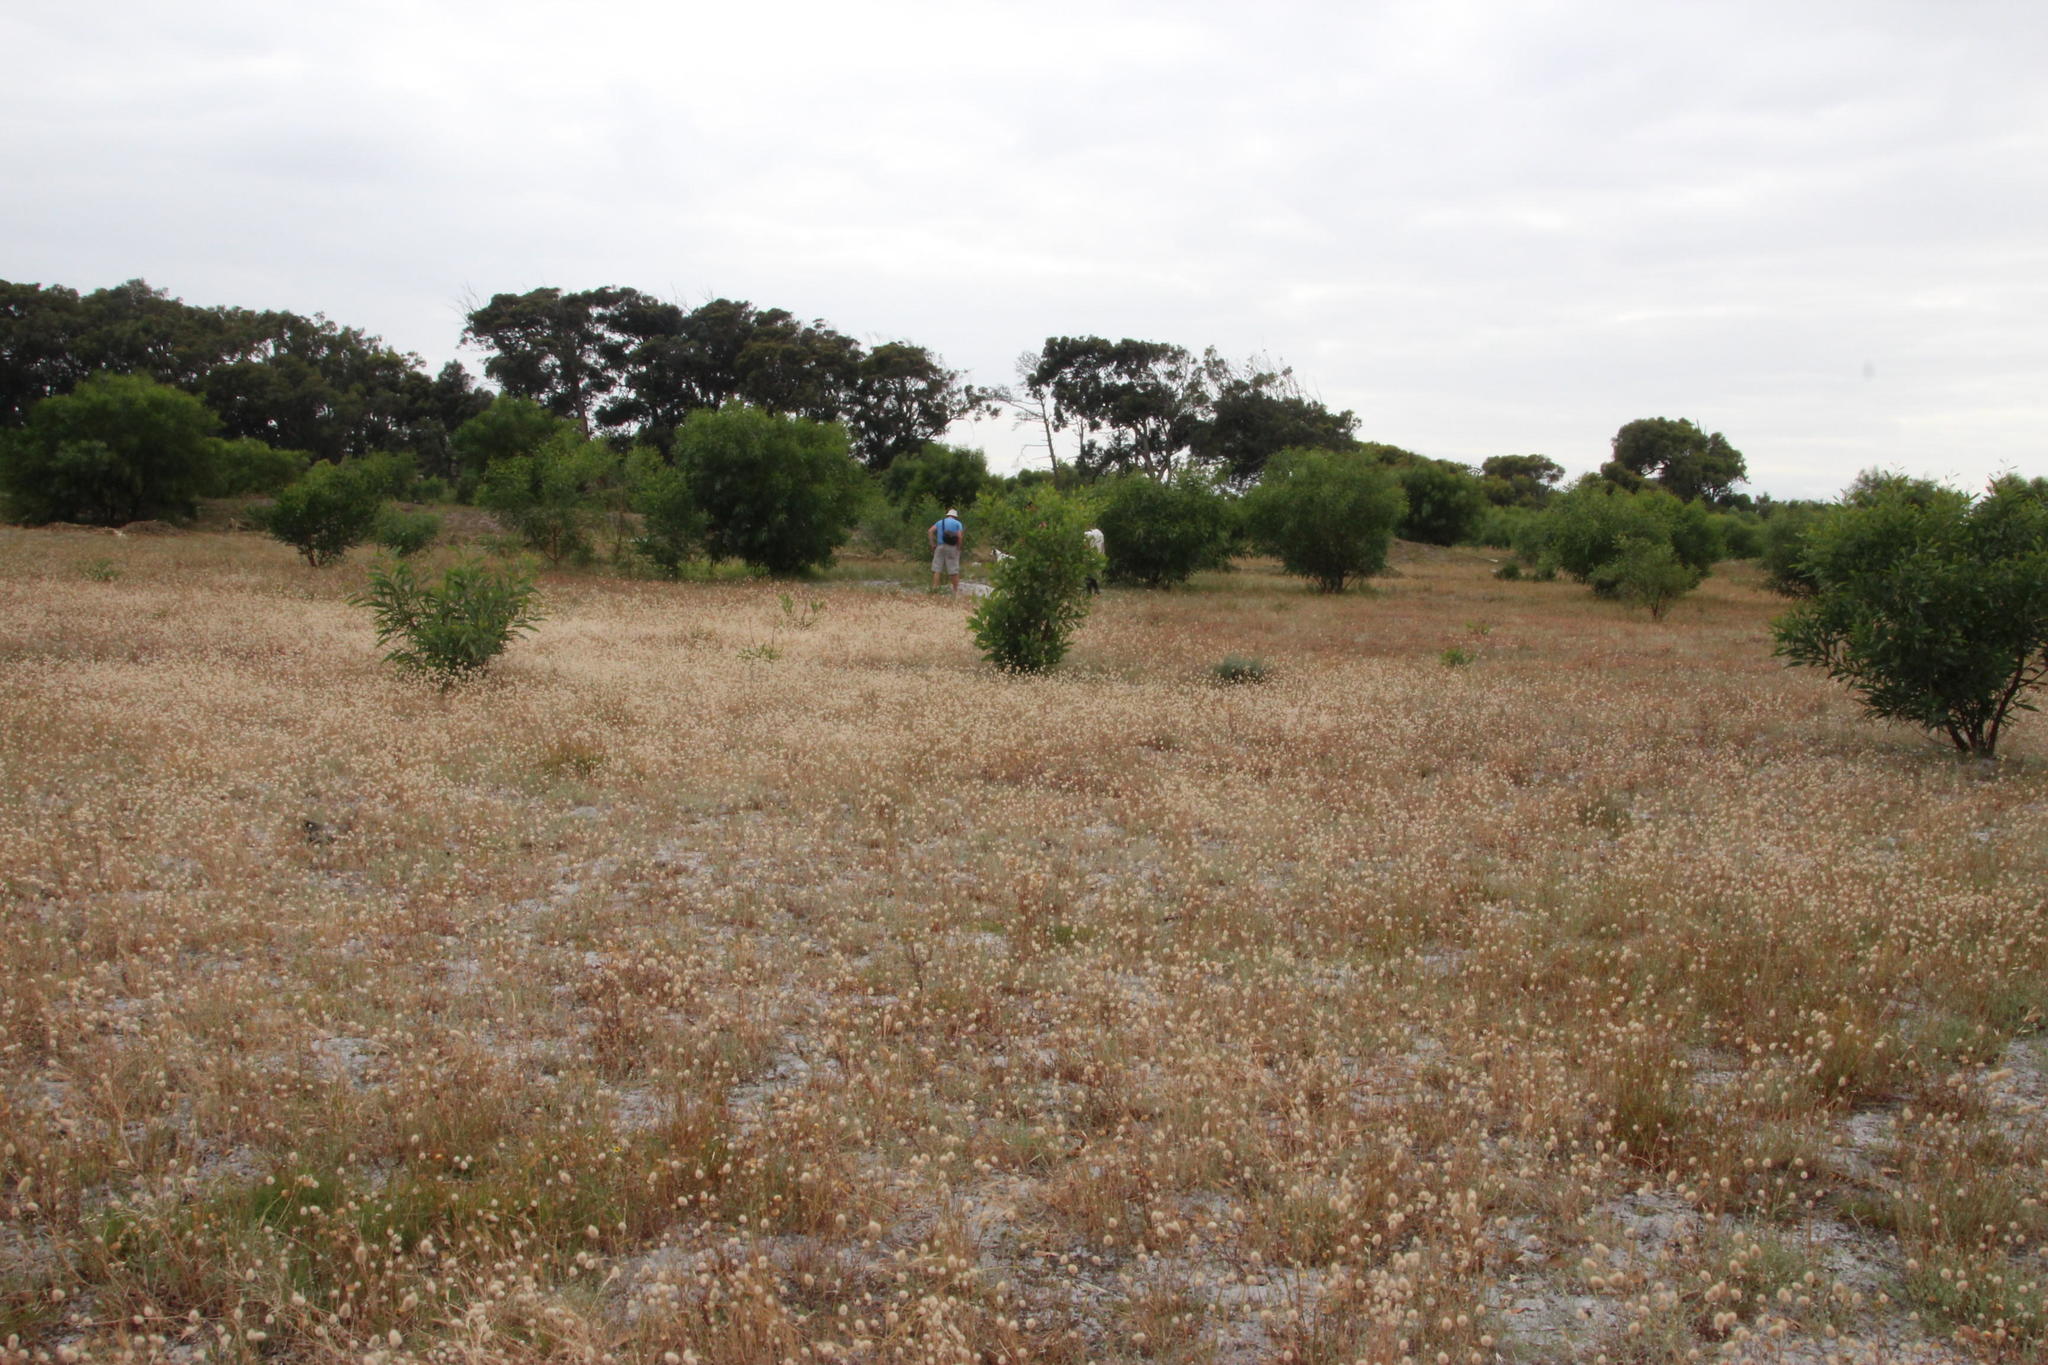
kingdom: Plantae
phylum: Tracheophyta
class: Liliopsida
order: Poales
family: Poaceae
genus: Lagurus
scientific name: Lagurus ovatus
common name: Hare's-tail
